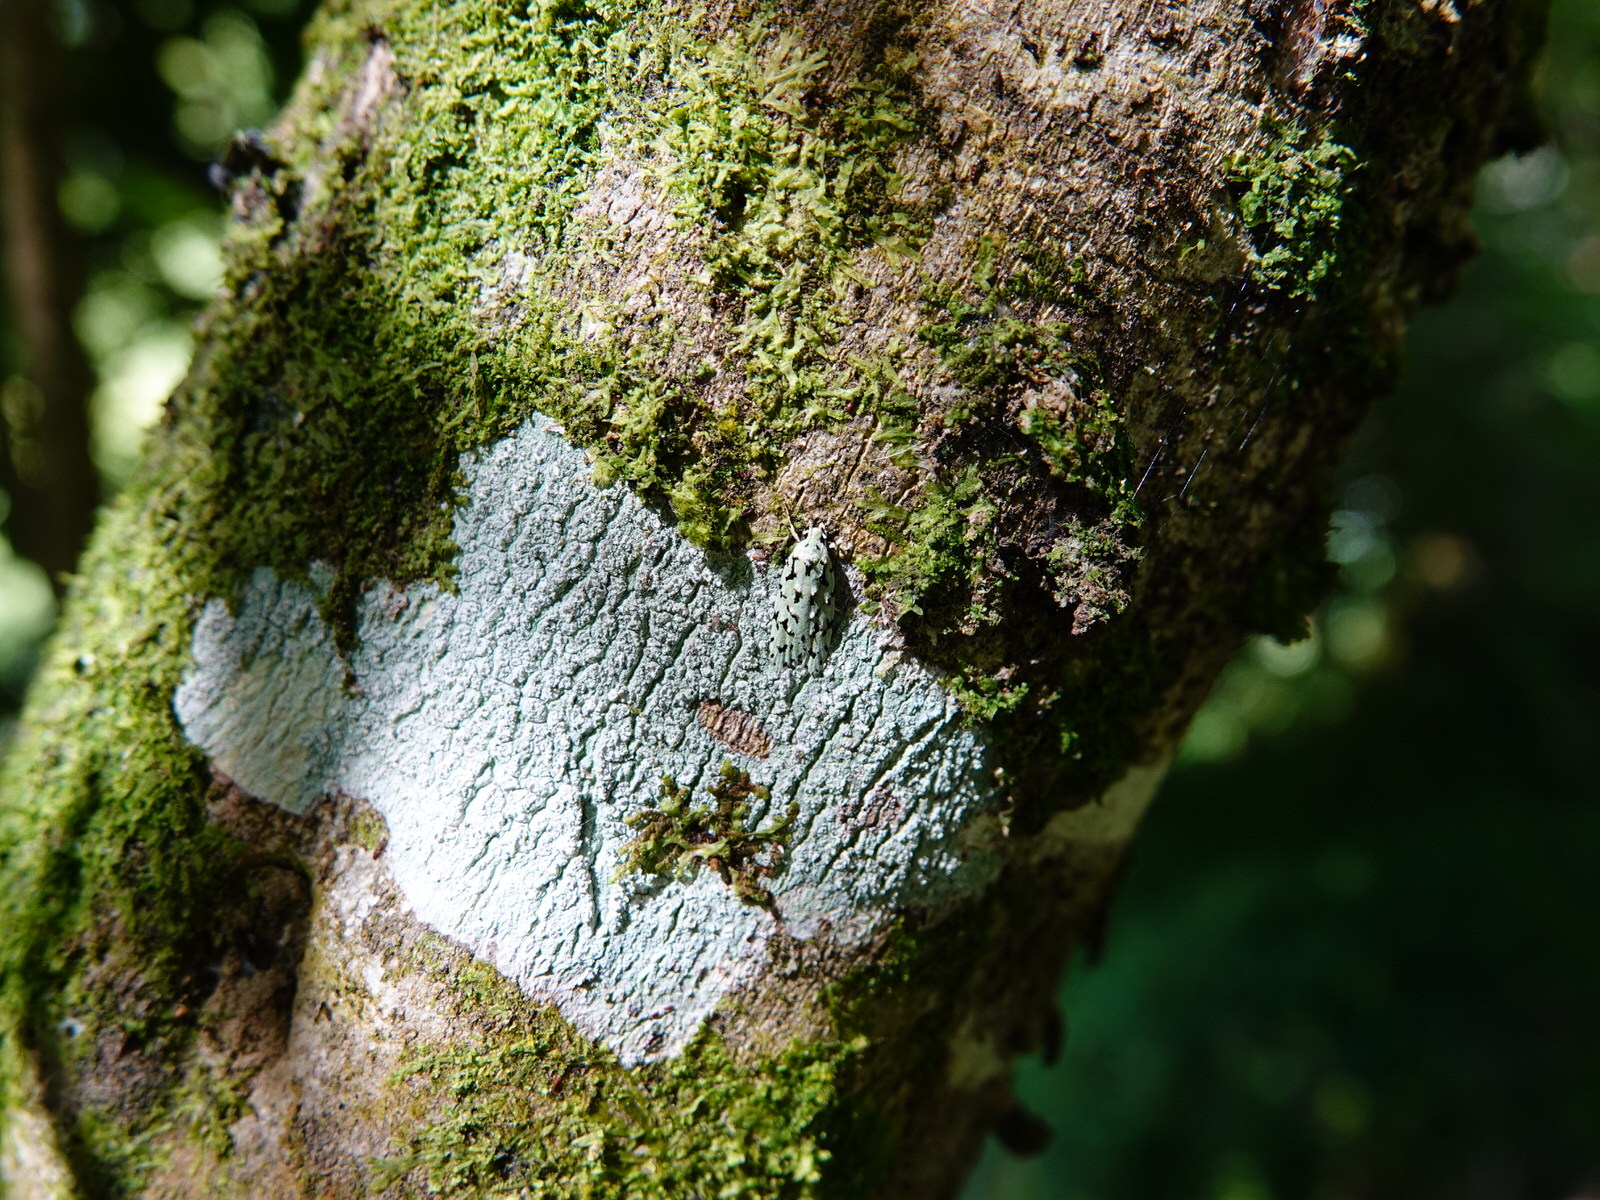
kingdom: Animalia
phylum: Arthropoda
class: Insecta
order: Lepidoptera
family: Oecophoridae
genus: Izatha
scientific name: Izatha peroneanella
